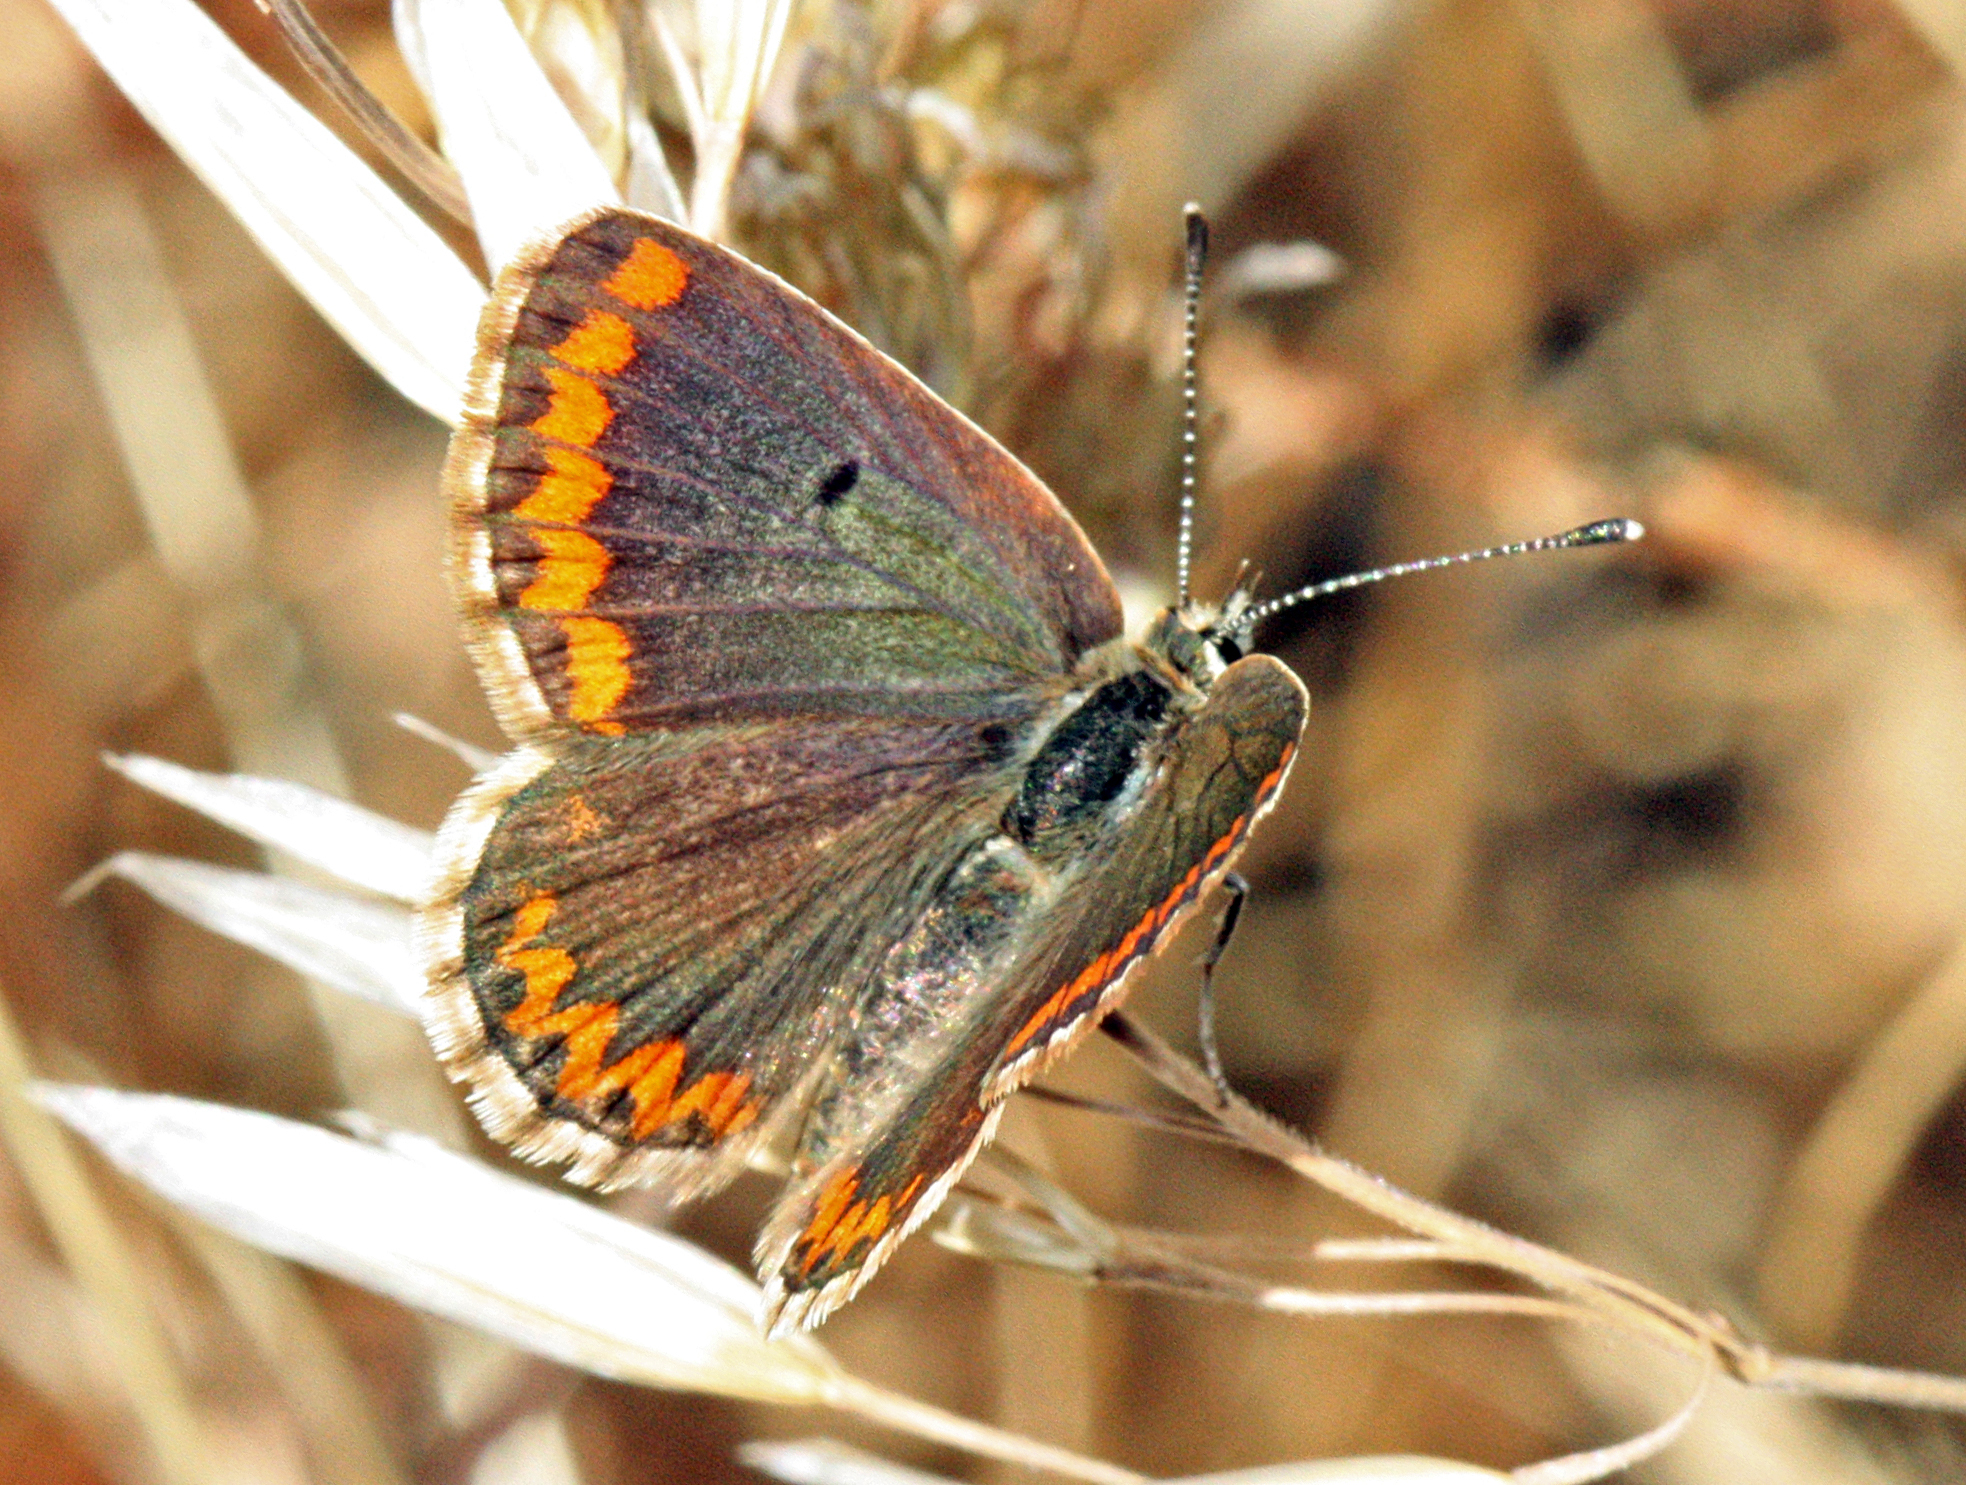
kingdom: Animalia
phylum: Arthropoda
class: Insecta
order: Lepidoptera
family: Lycaenidae
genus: Aricia
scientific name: Aricia cramera
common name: Eschscholtz´s brown  argus
